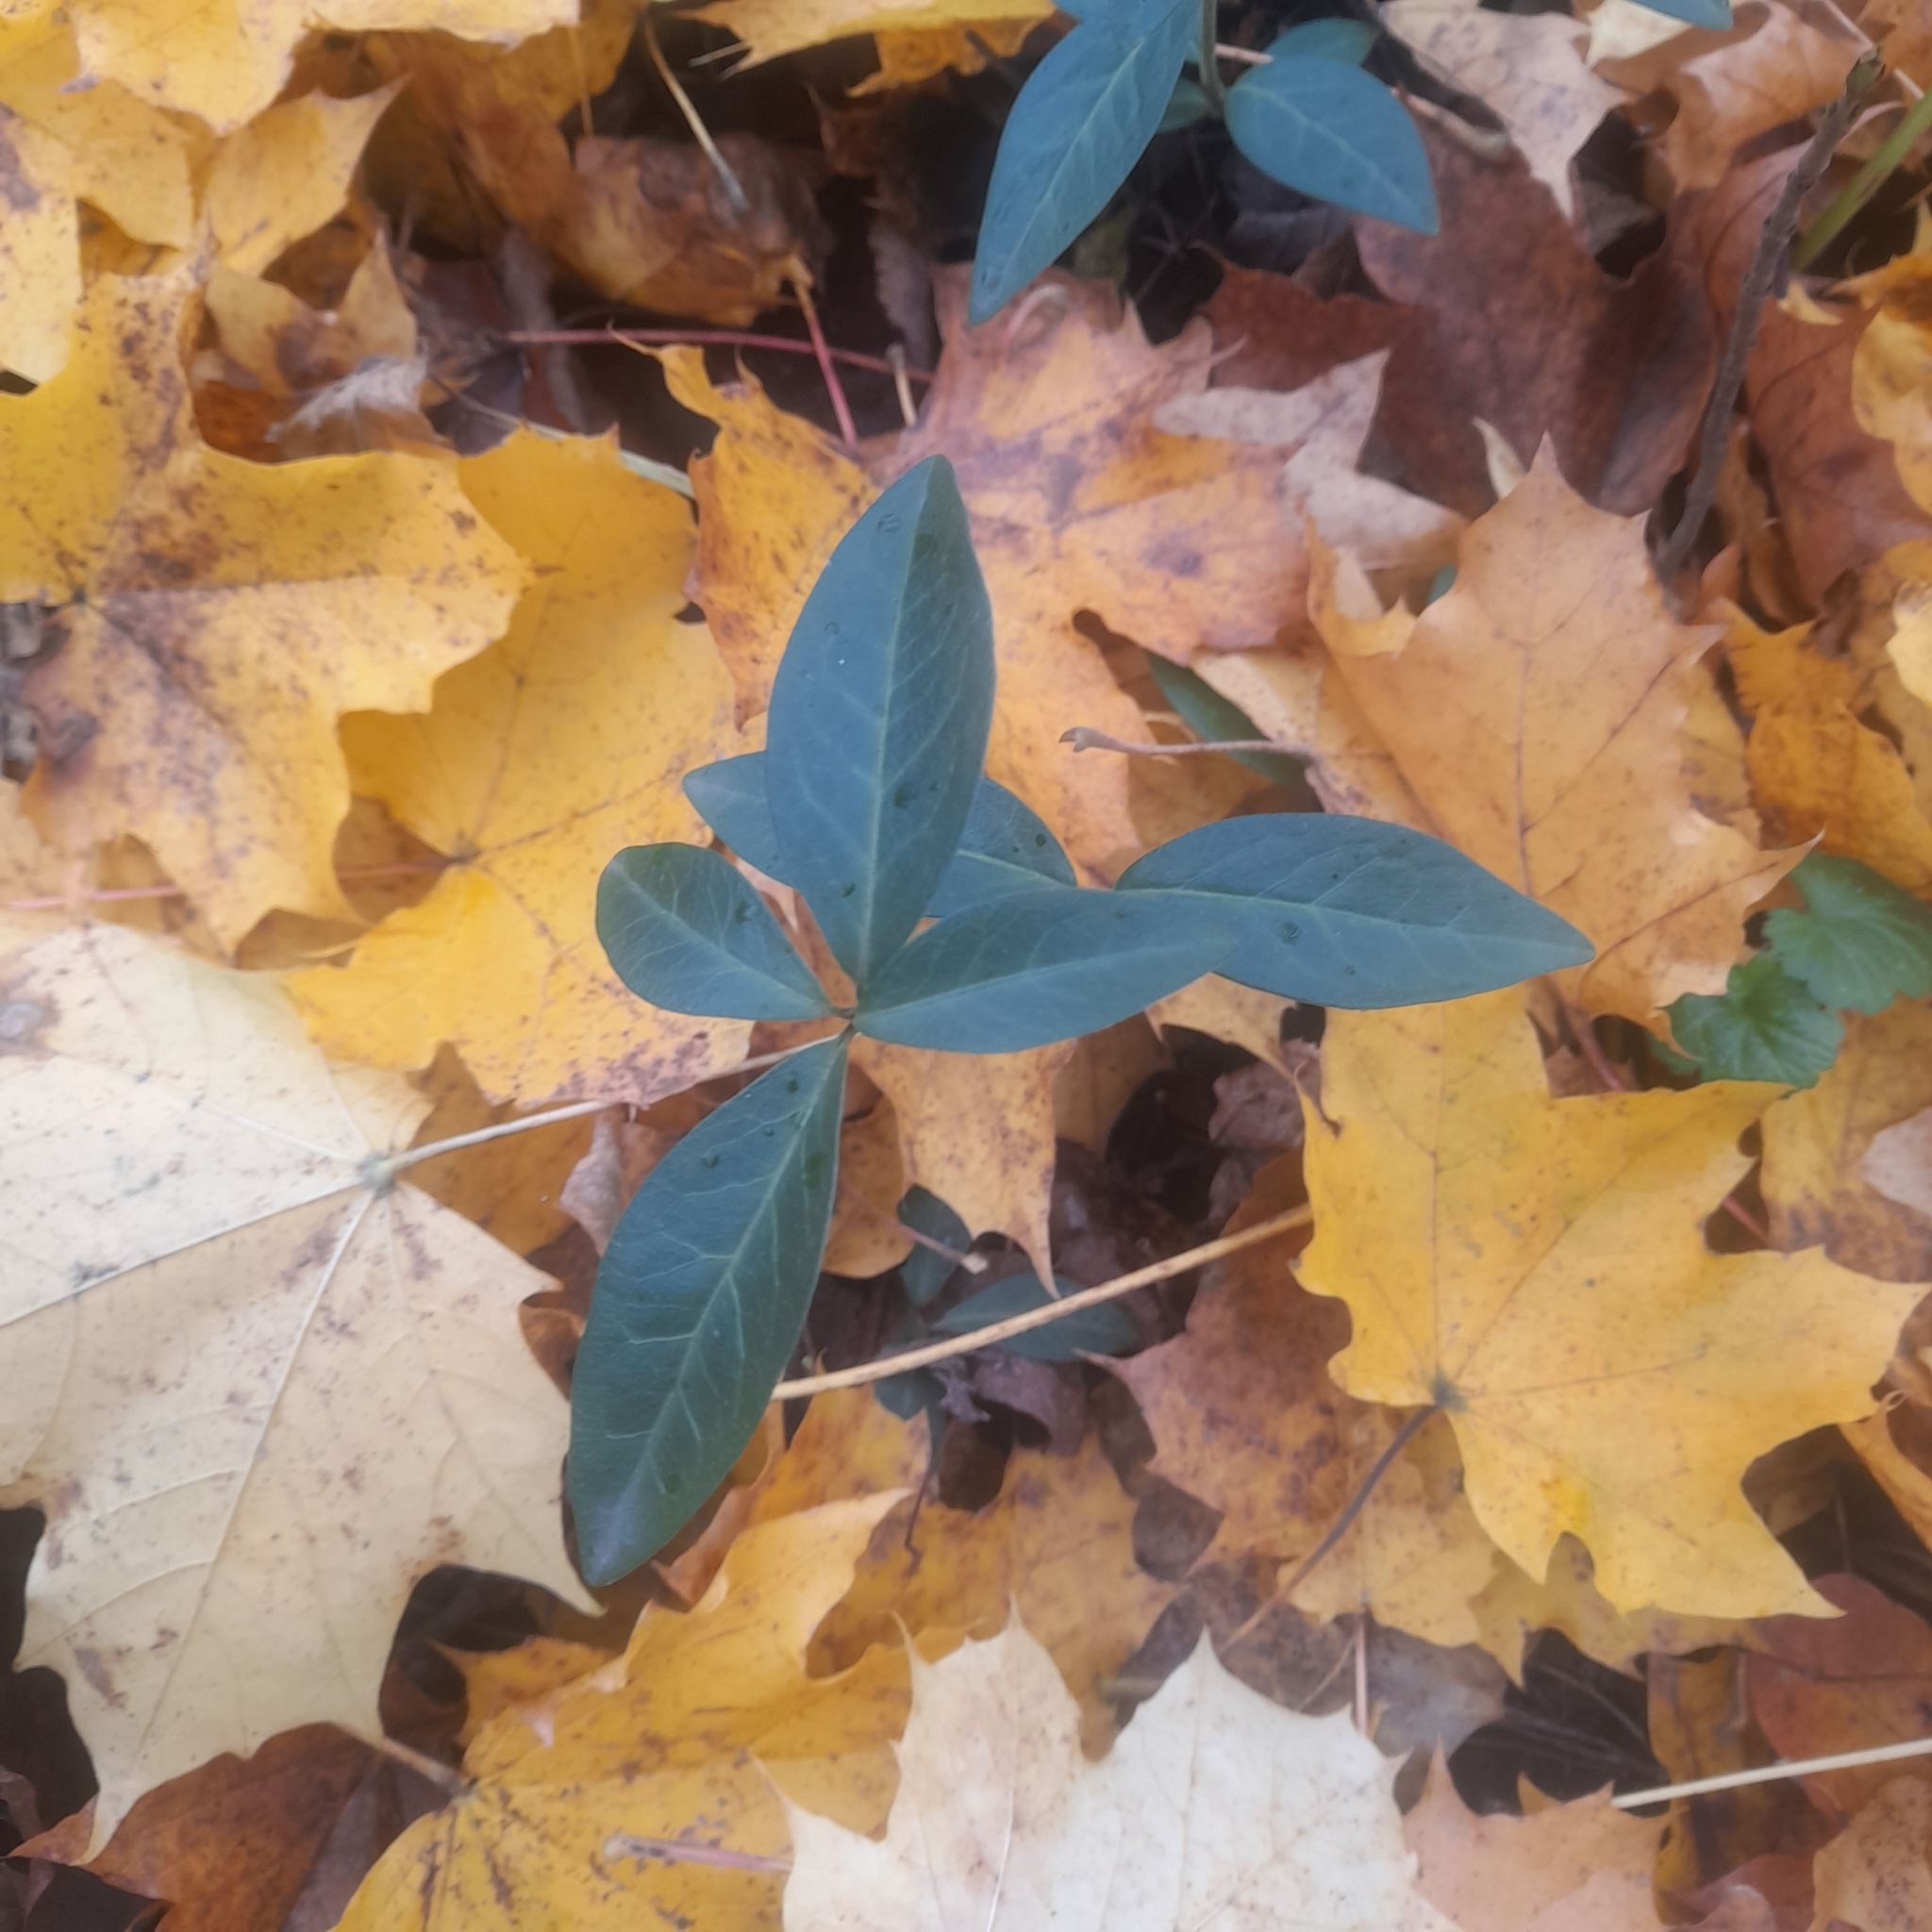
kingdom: Plantae
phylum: Tracheophyta
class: Magnoliopsida
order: Gentianales
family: Apocynaceae
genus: Vinca
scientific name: Vinca minor
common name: Lesser periwinkle
